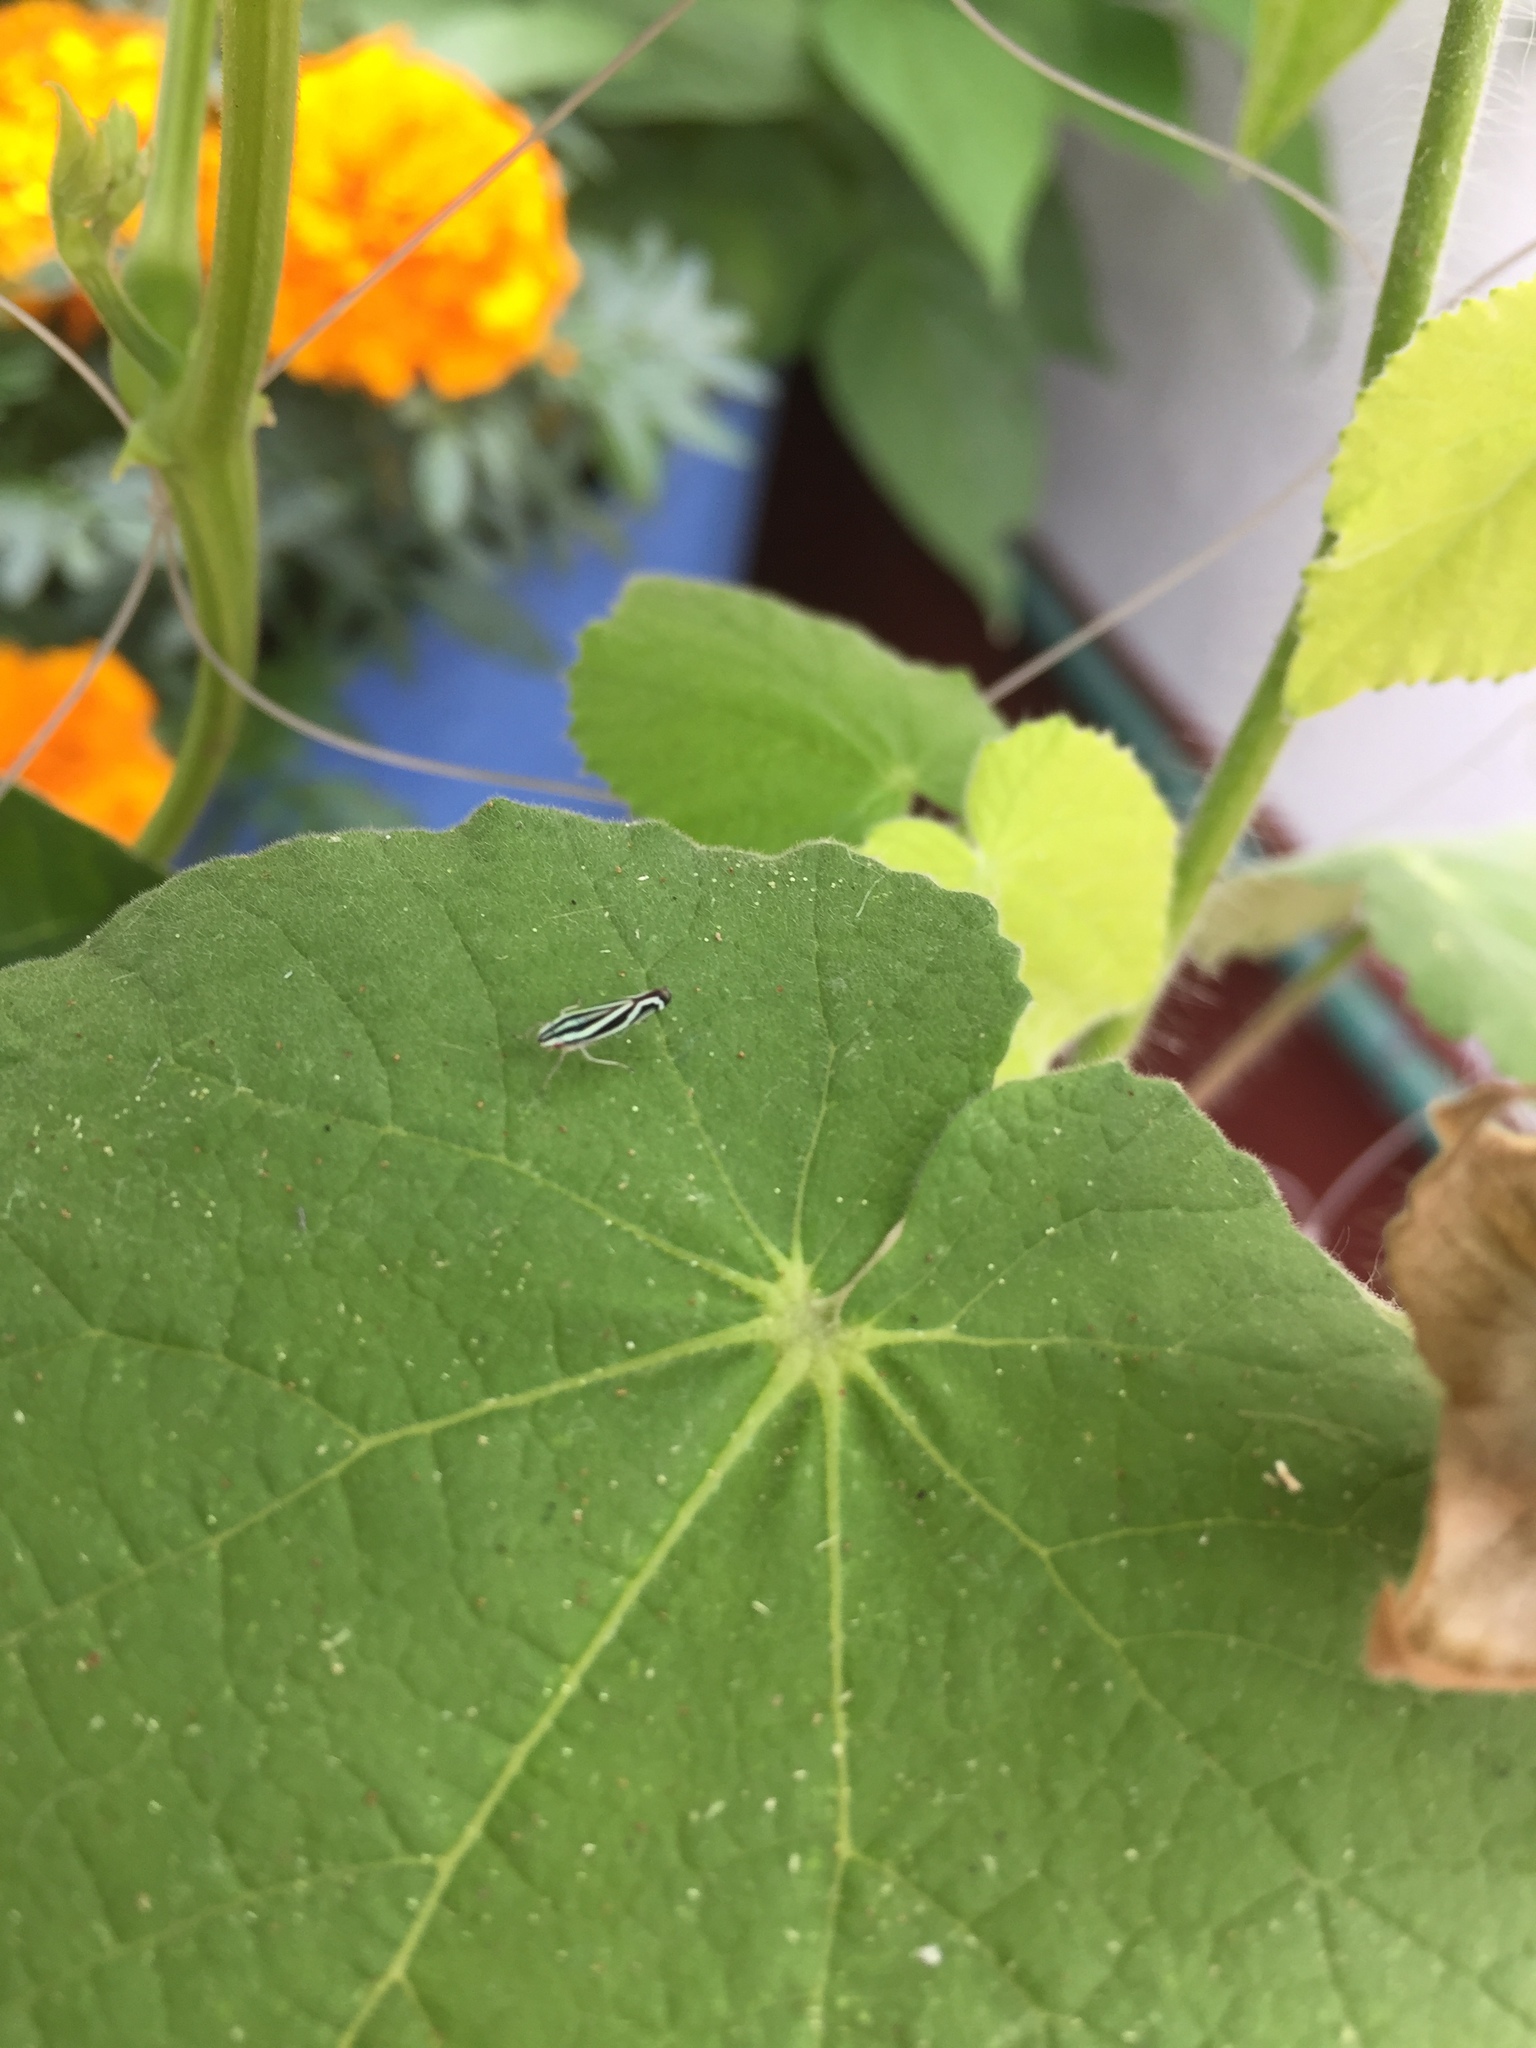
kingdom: Animalia
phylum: Arthropoda
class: Insecta
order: Hemiptera
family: Cicadellidae
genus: Sibovia
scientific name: Sibovia sagata
